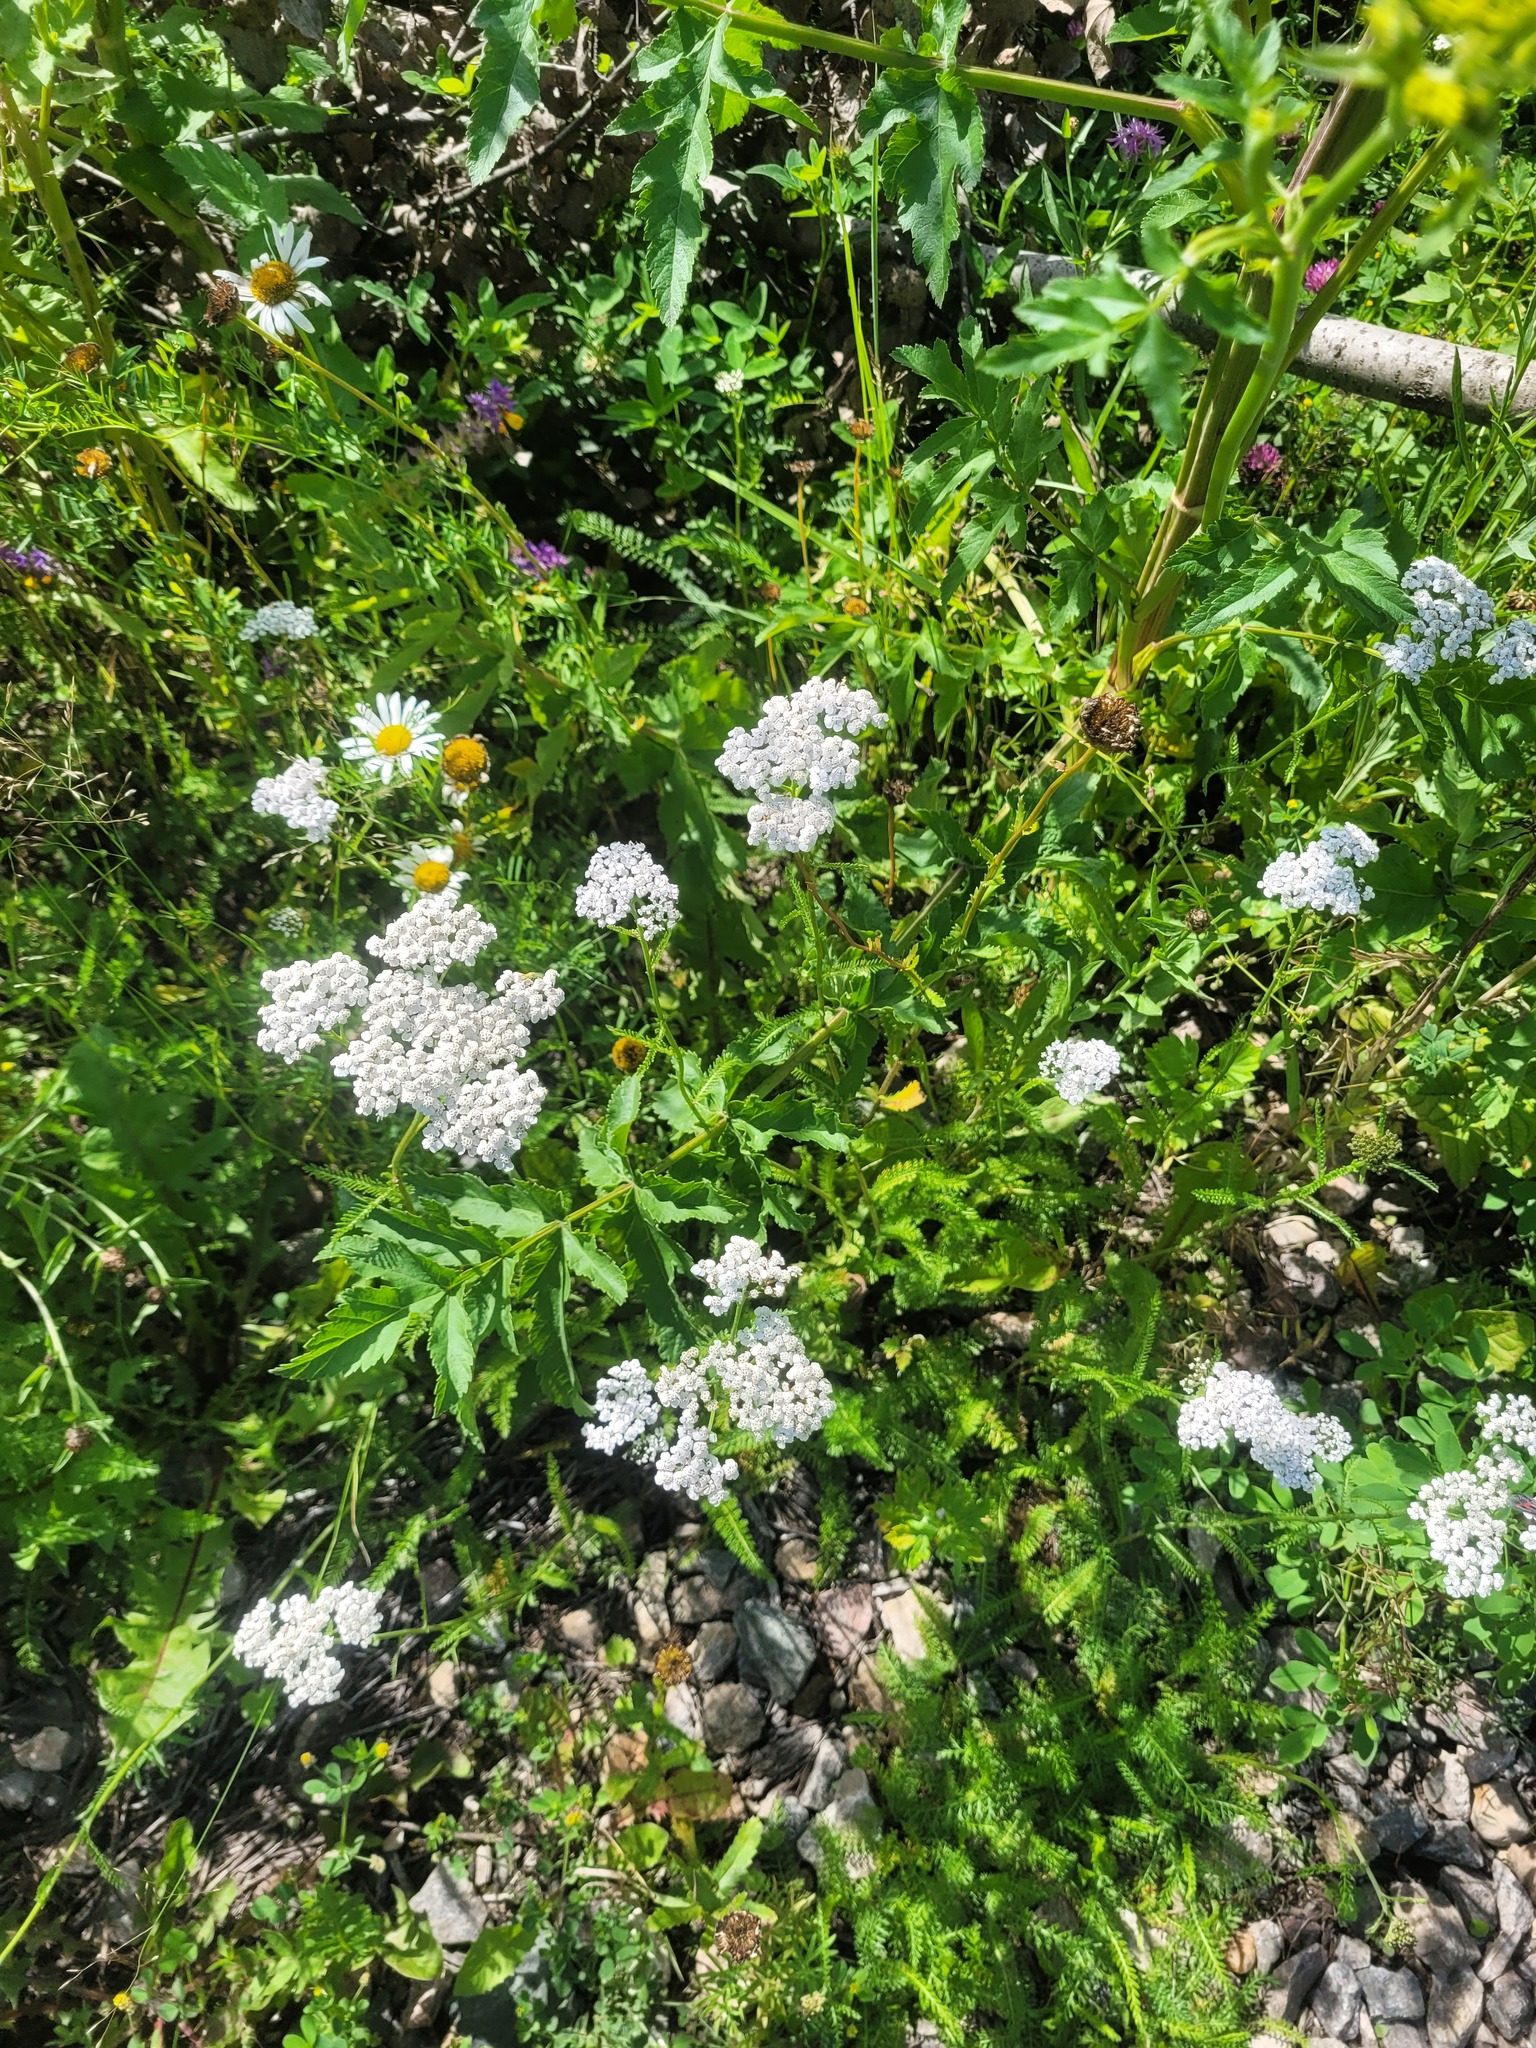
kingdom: Plantae
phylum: Tracheophyta
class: Magnoliopsida
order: Asterales
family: Asteraceae
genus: Achillea
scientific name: Achillea millefolium
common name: Yarrow
